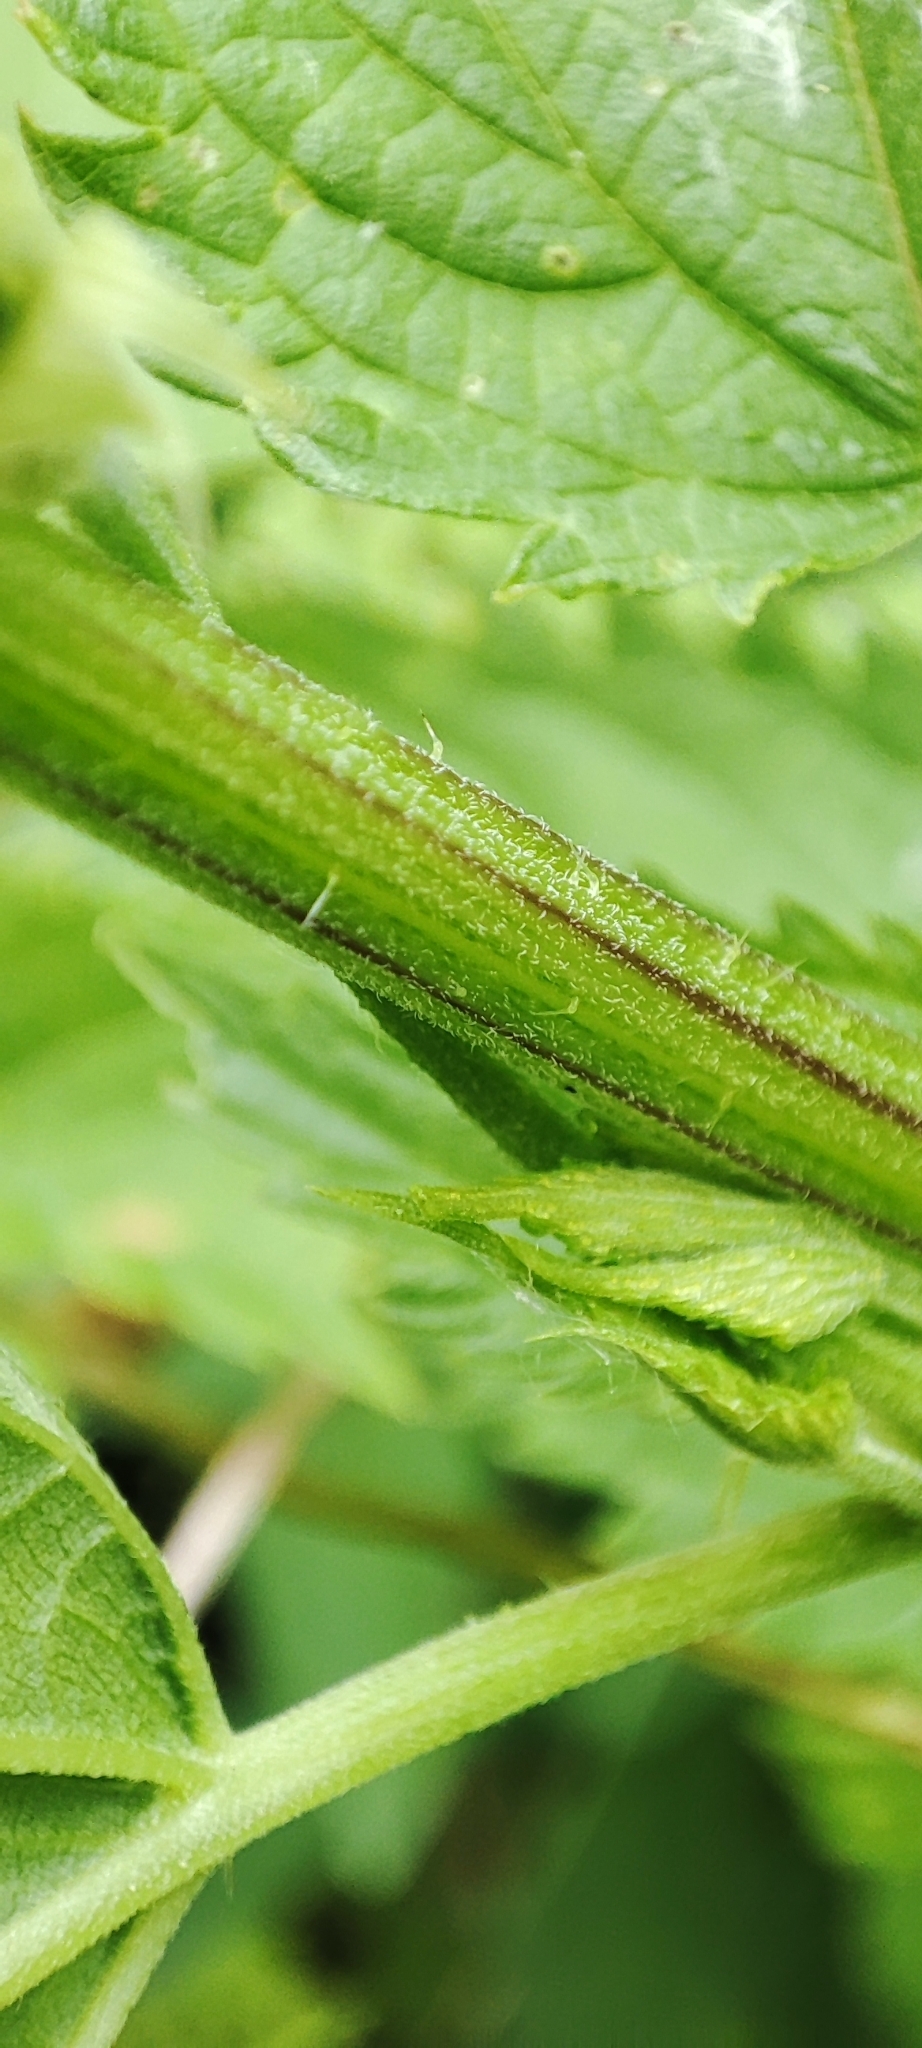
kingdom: Plantae
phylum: Tracheophyta
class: Magnoliopsida
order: Rosales
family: Urticaceae
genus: Urtica
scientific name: Urtica dioica
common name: Common nettle
